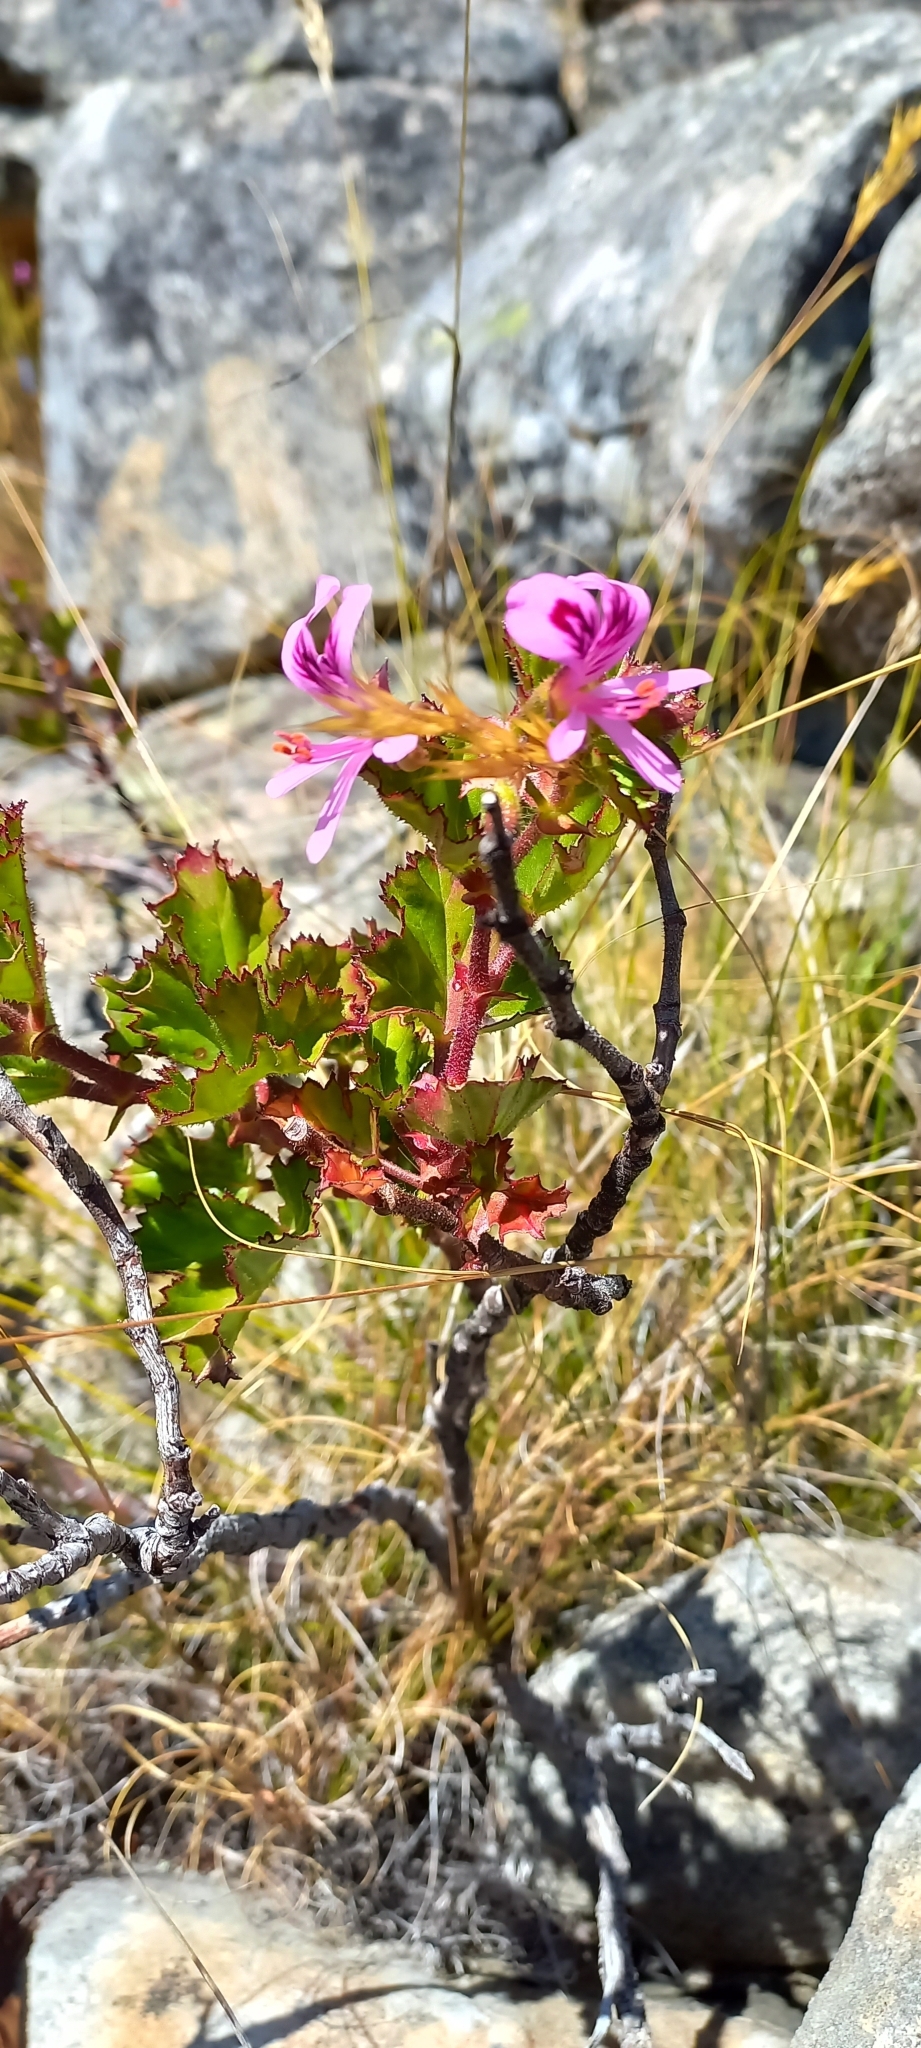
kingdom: Plantae
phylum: Tracheophyta
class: Magnoliopsida
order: Geraniales
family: Geraniaceae
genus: Pelargonium
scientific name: Pelargonium englerianum
